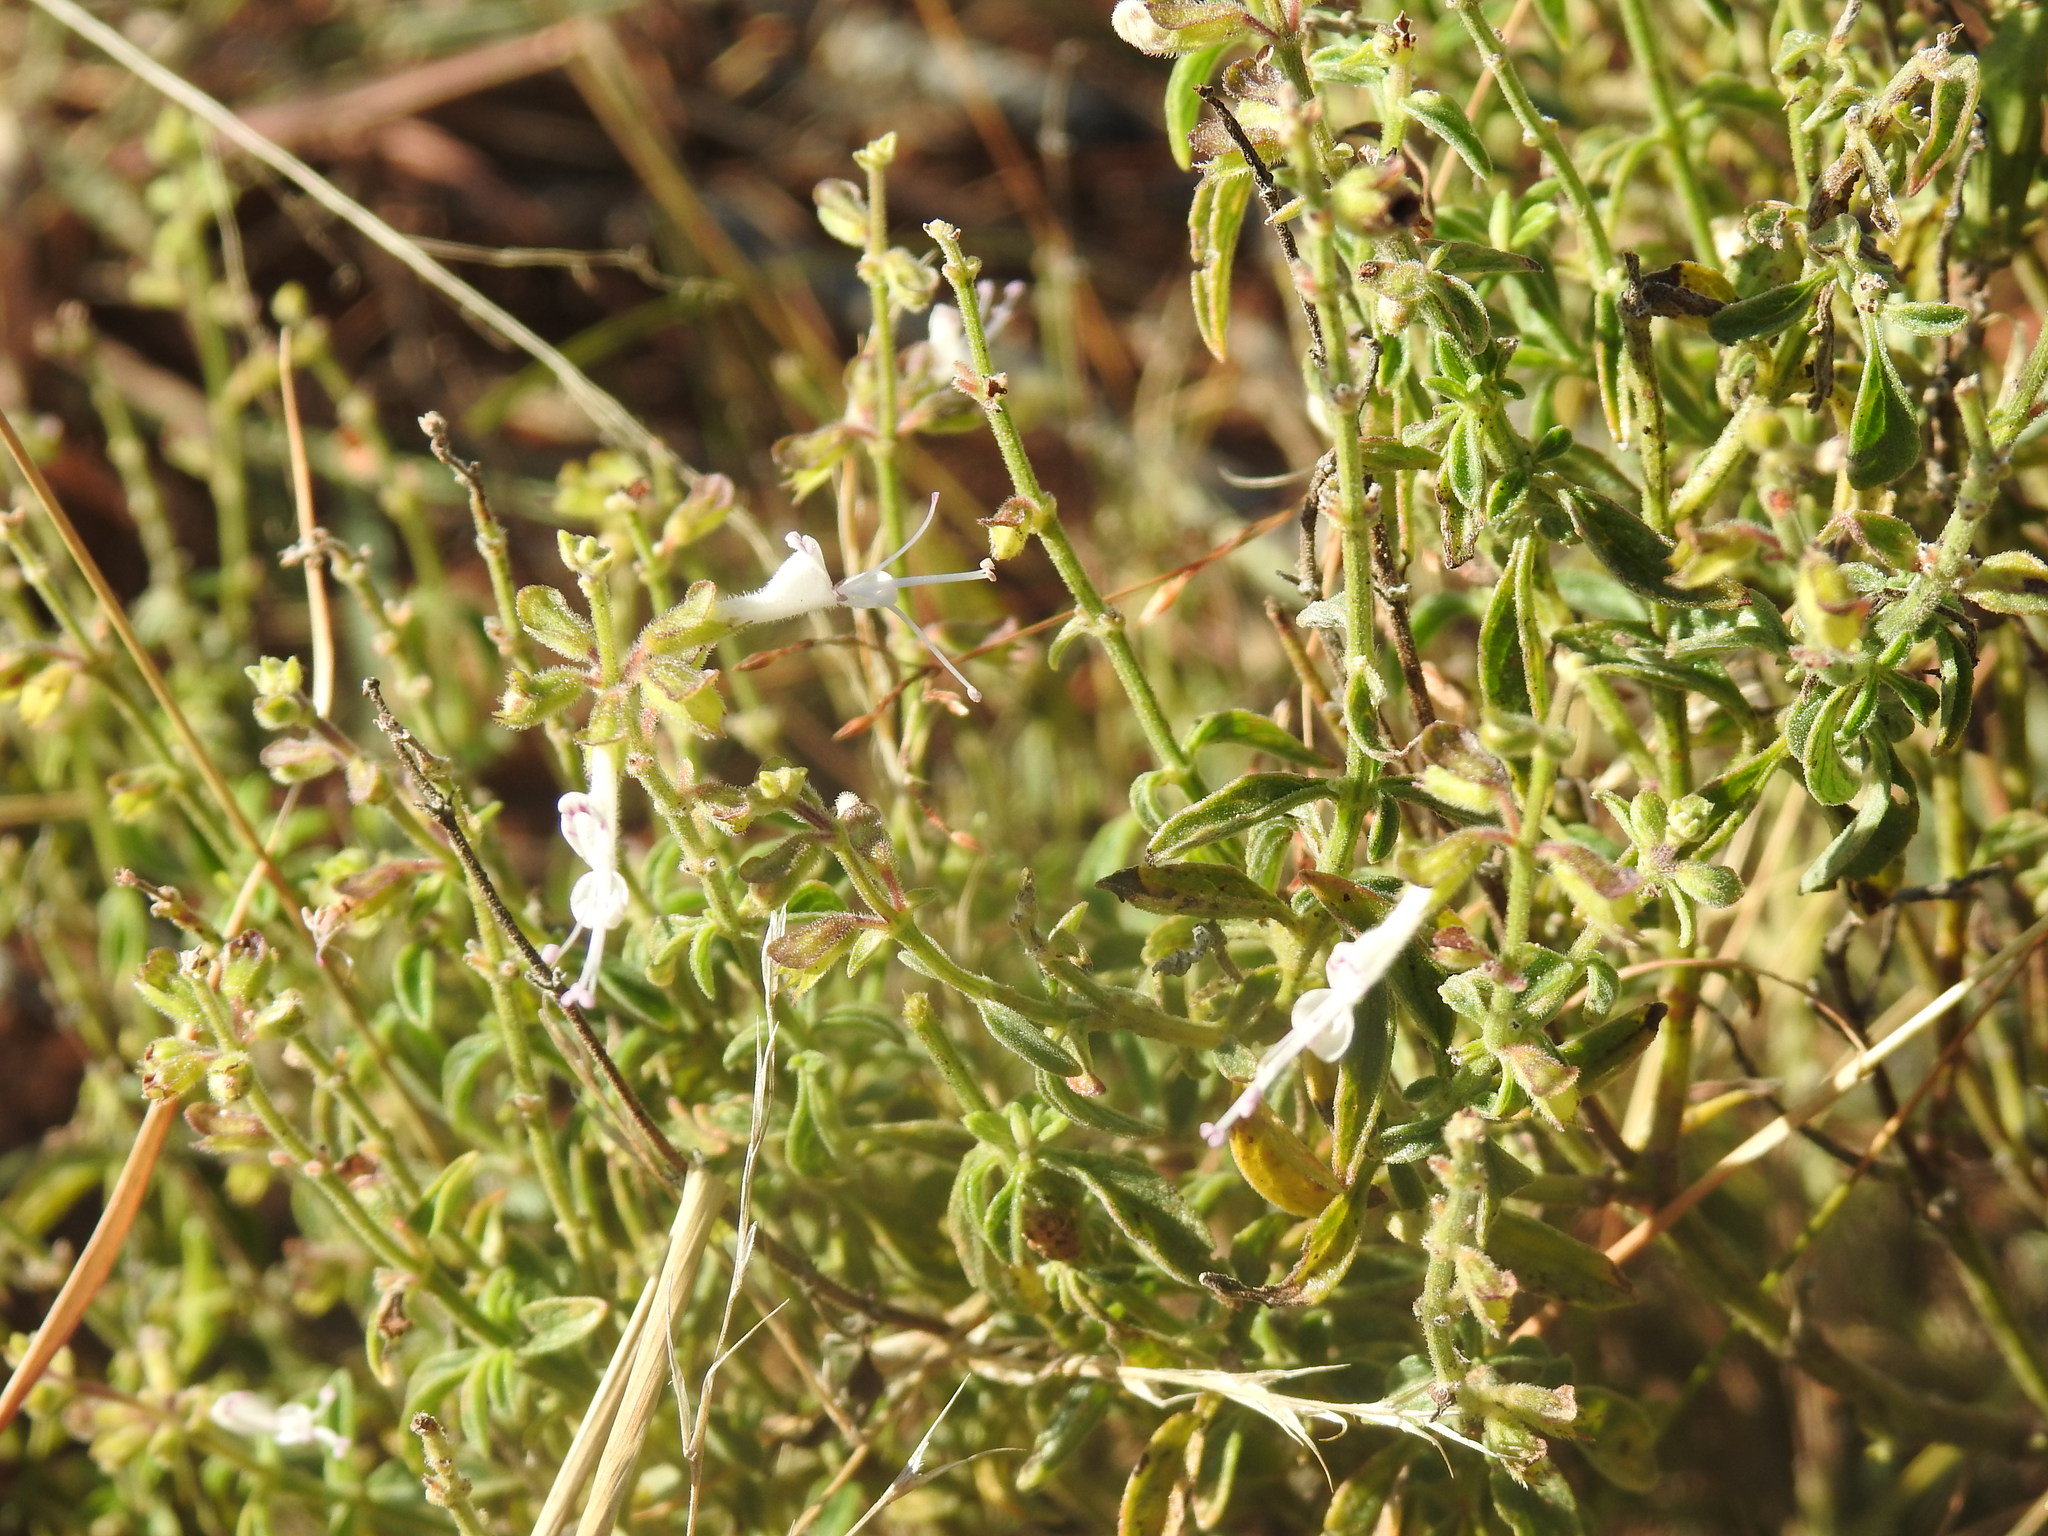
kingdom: Plantae
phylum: Tracheophyta
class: Magnoliopsida
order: Lamiales
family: Lamiaceae
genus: Syncolostemon
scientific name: Syncolostemon pretoriae
